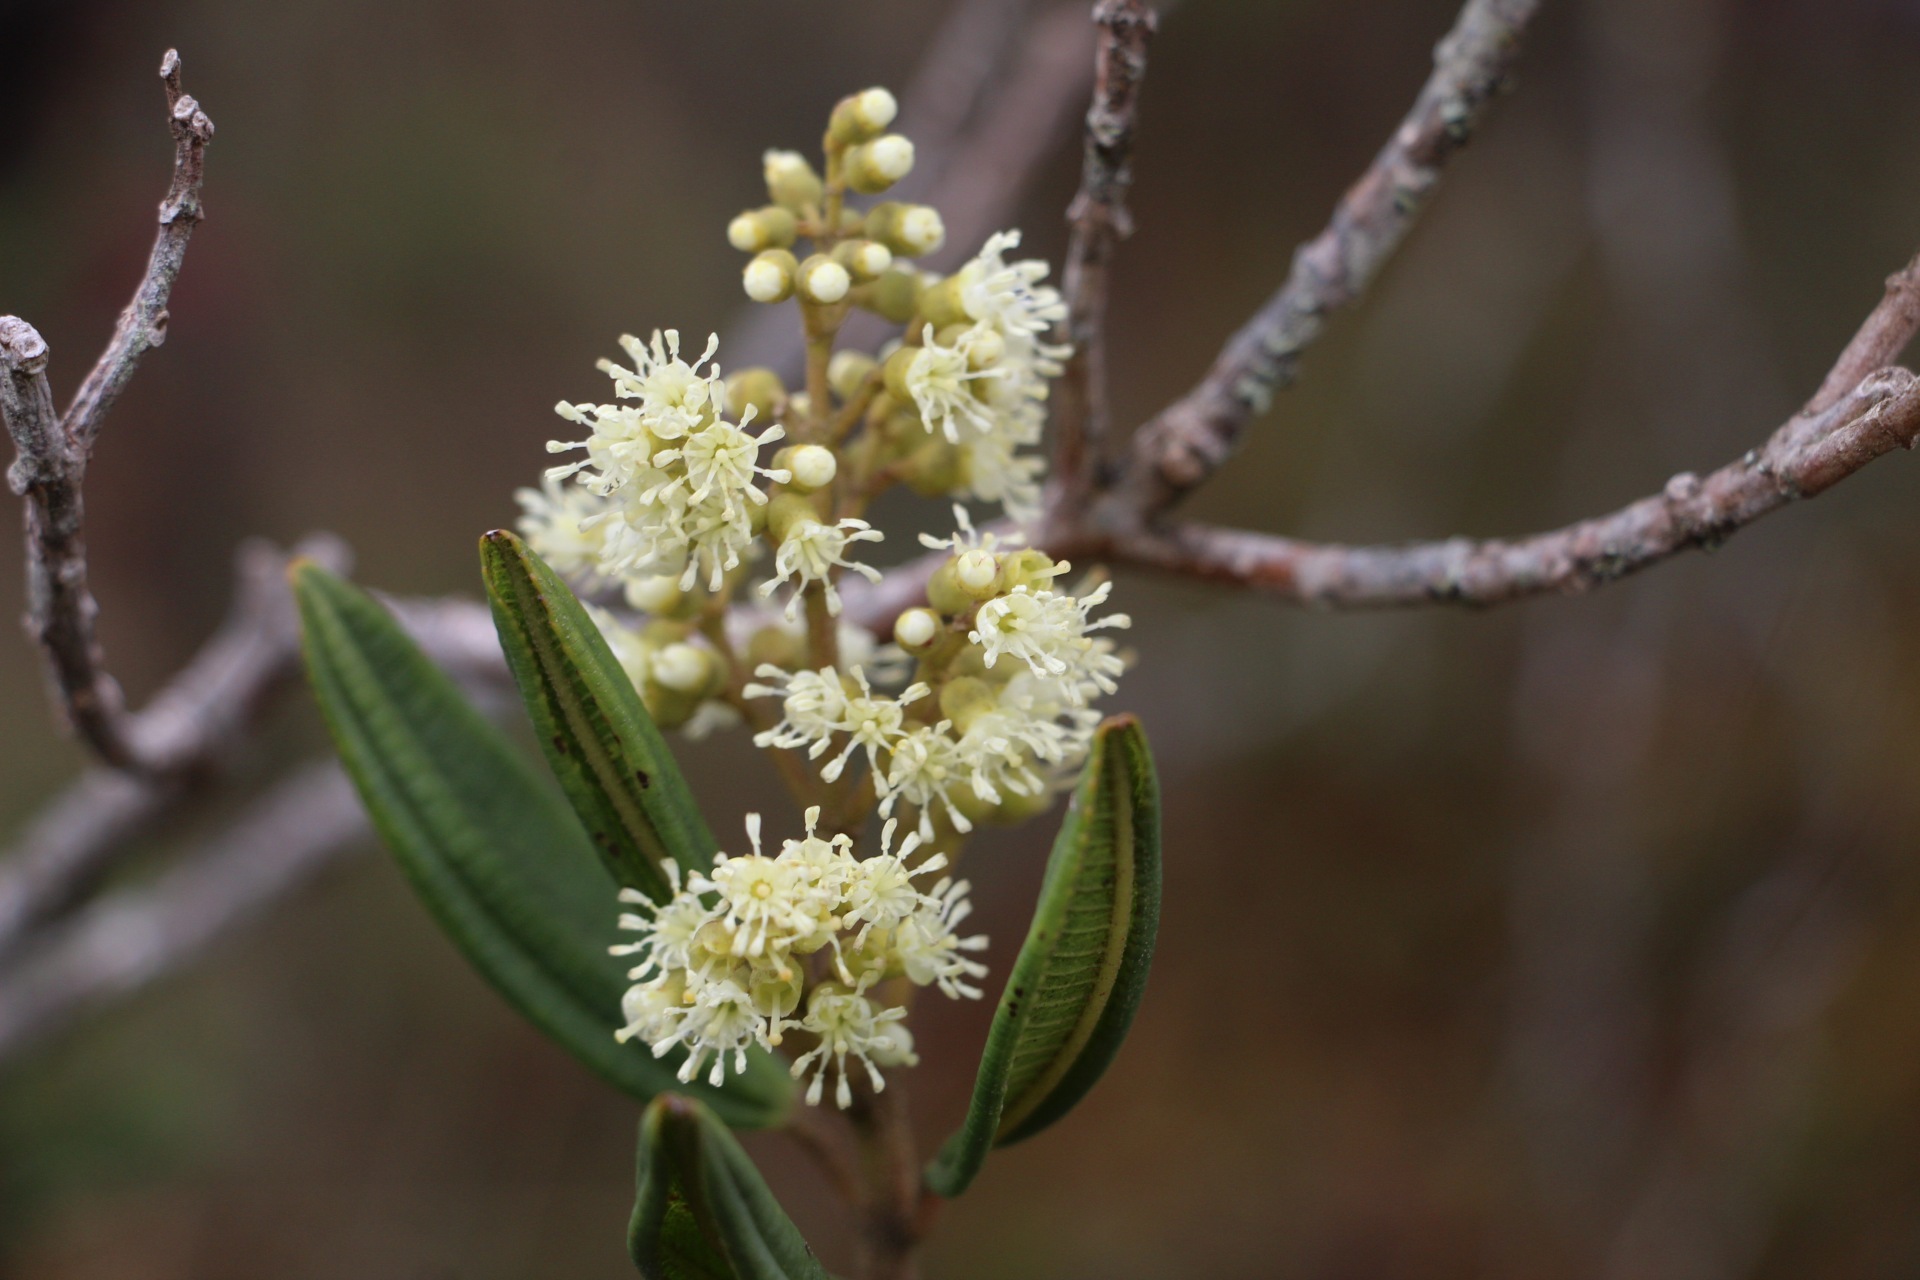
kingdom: Plantae
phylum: Tracheophyta
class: Magnoliopsida
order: Myrtales
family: Melastomataceae
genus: Miconia
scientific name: Miconia elaeoides
